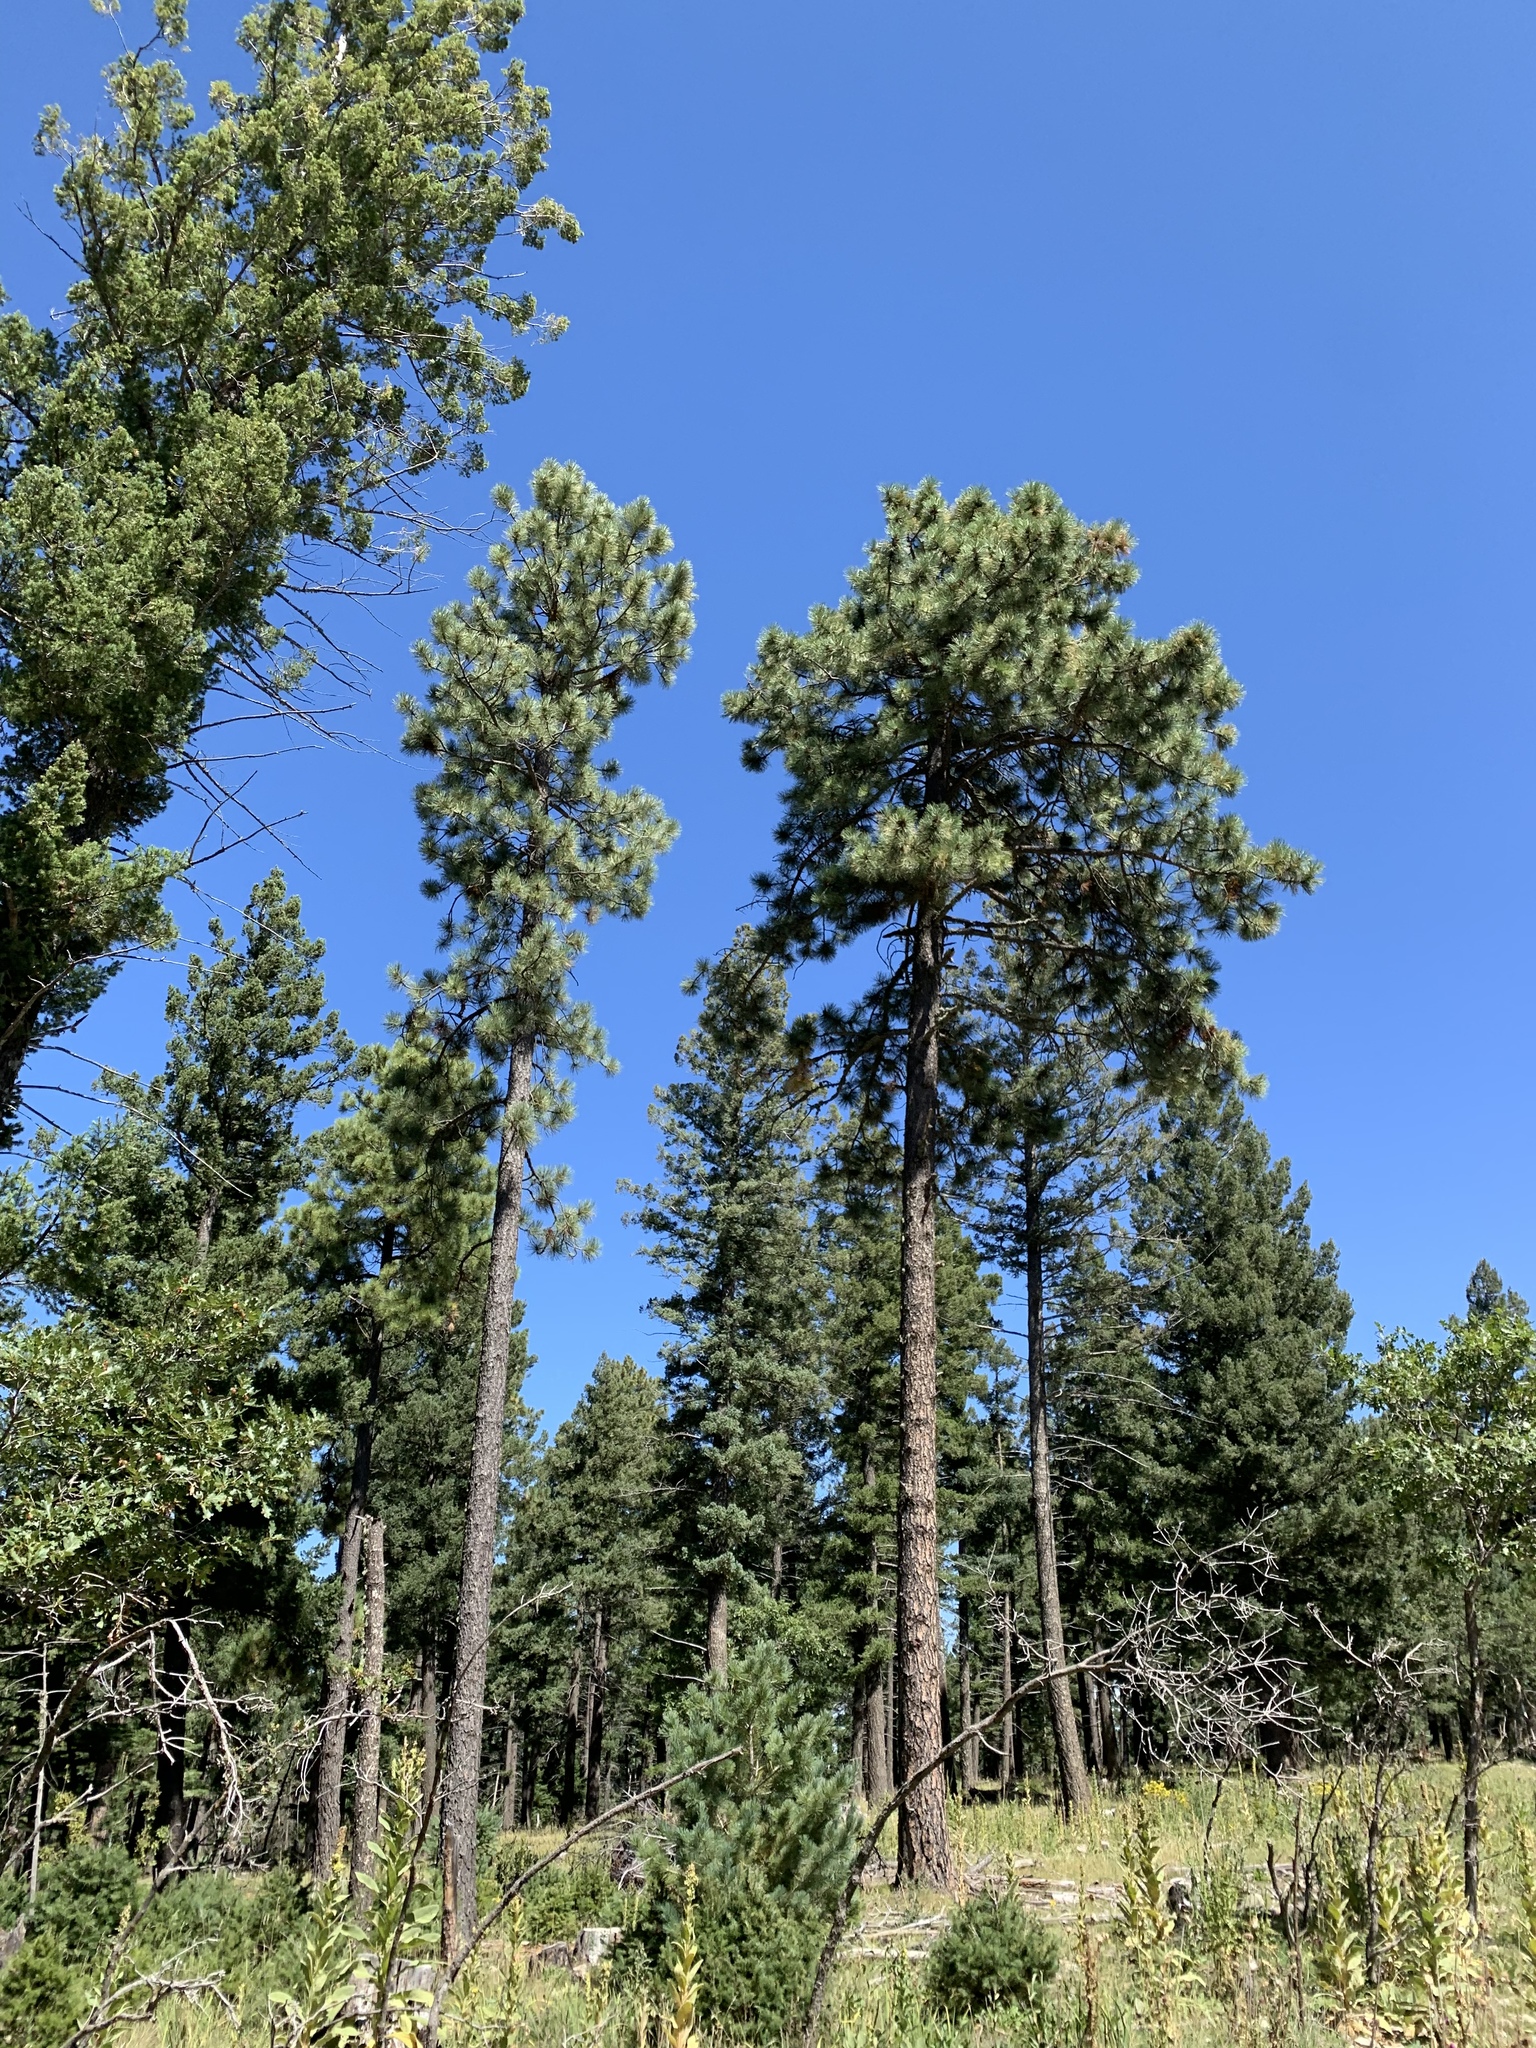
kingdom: Plantae
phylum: Tracheophyta
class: Pinopsida
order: Pinales
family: Pinaceae
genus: Pinus
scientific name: Pinus ponderosa
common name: Western yellow-pine
